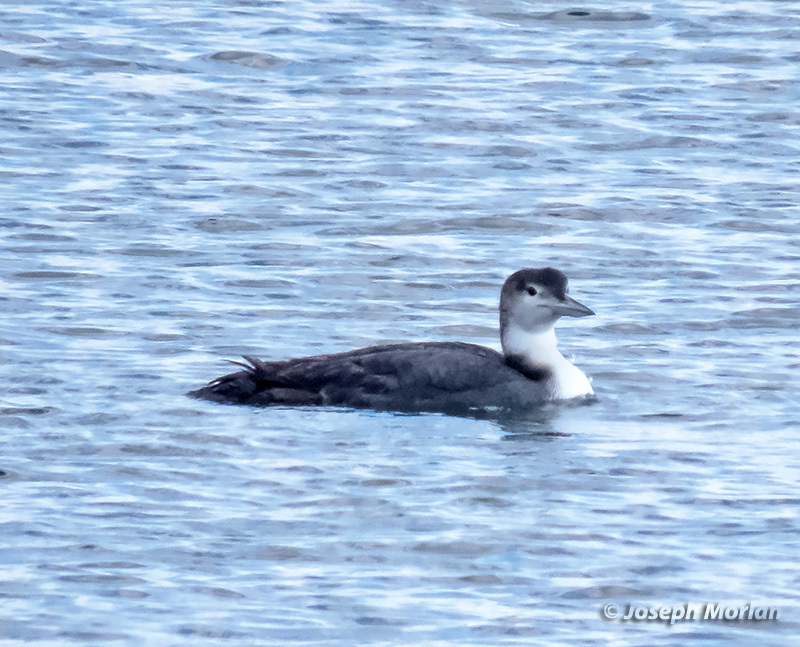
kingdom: Animalia
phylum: Chordata
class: Aves
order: Gaviiformes
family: Gaviidae
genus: Gavia
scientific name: Gavia immer
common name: Common loon
